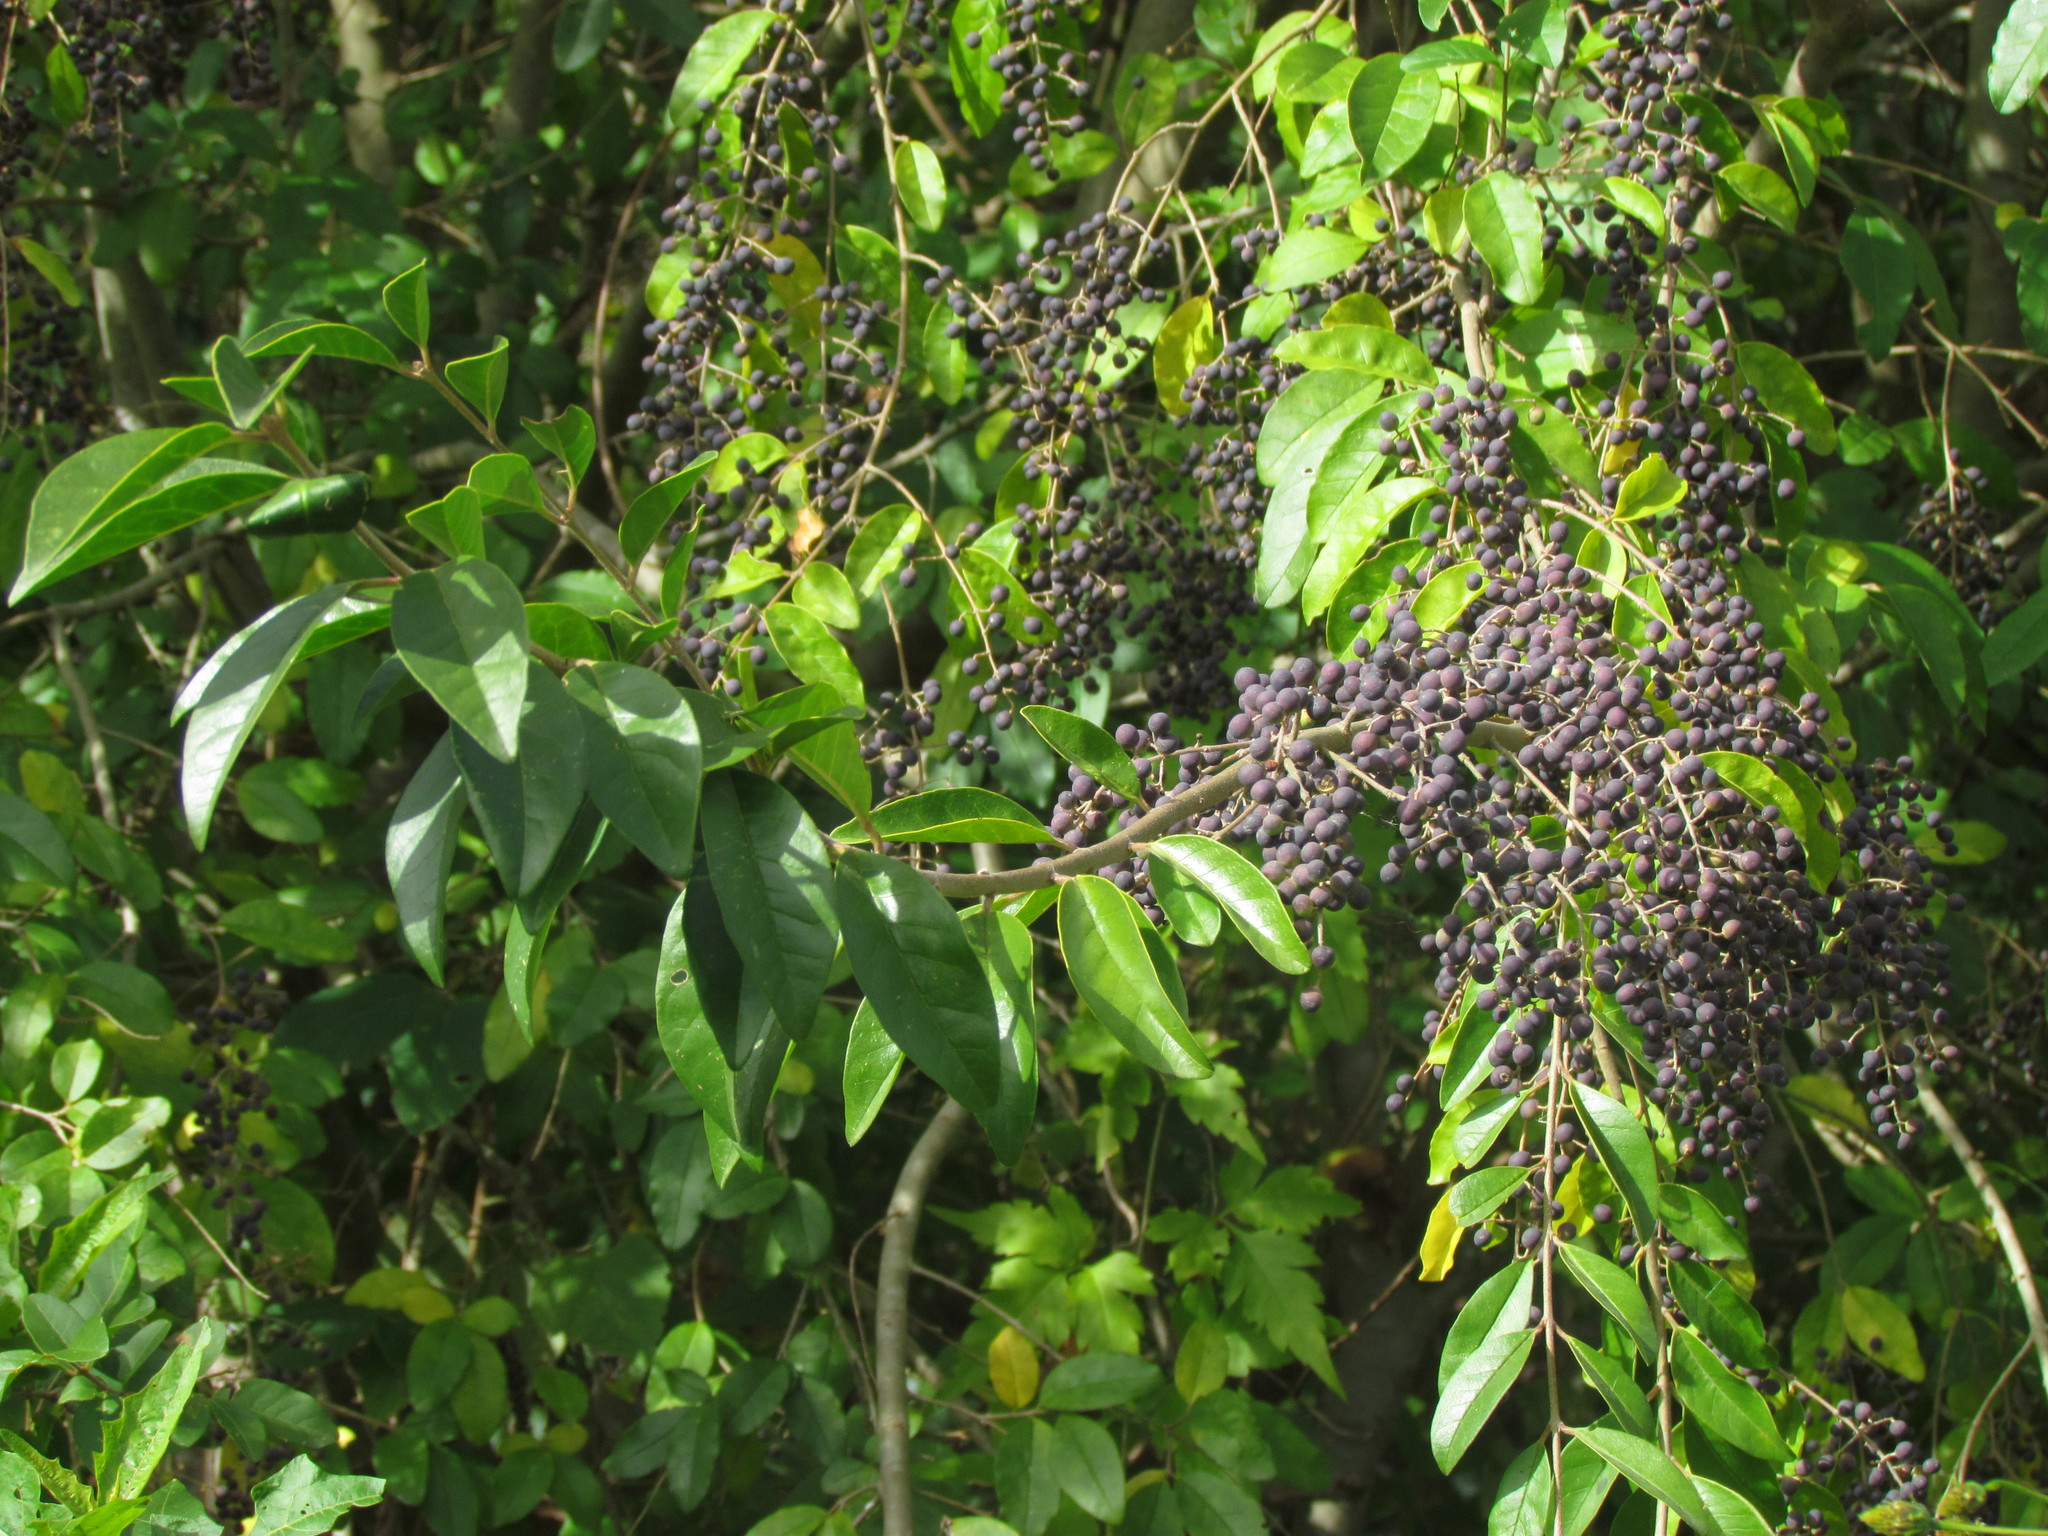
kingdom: Plantae
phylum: Tracheophyta
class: Magnoliopsida
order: Lamiales
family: Oleaceae
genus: Ligustrum
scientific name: Ligustrum lucidum
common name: Glossy privet
